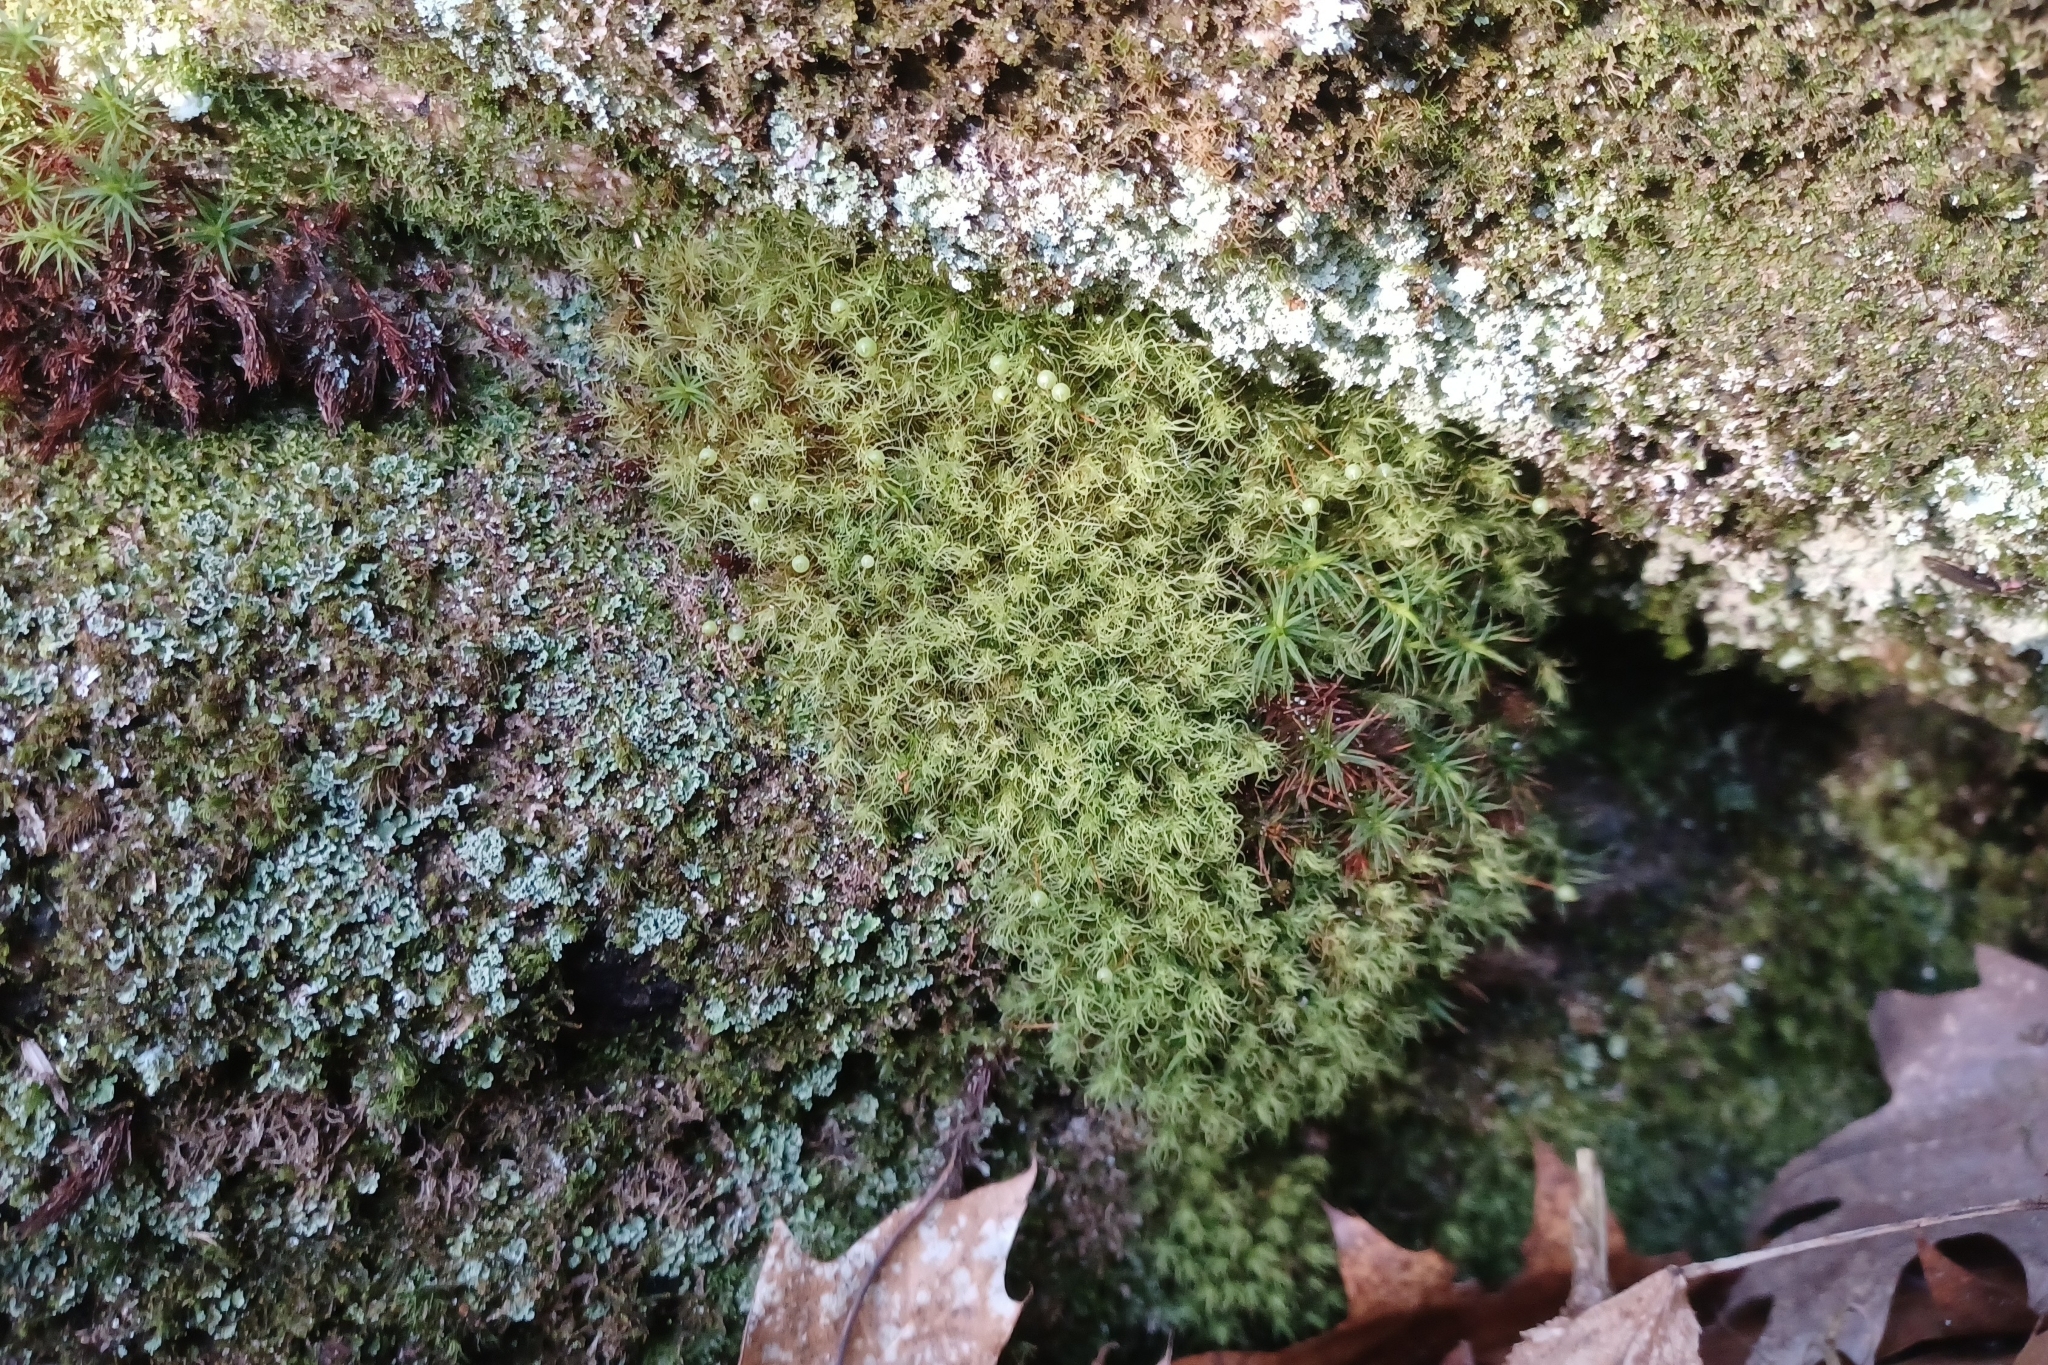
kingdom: Plantae
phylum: Bryophyta
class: Bryopsida
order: Bartramiales
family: Bartramiaceae
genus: Bartramia
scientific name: Bartramia ithyphylla
